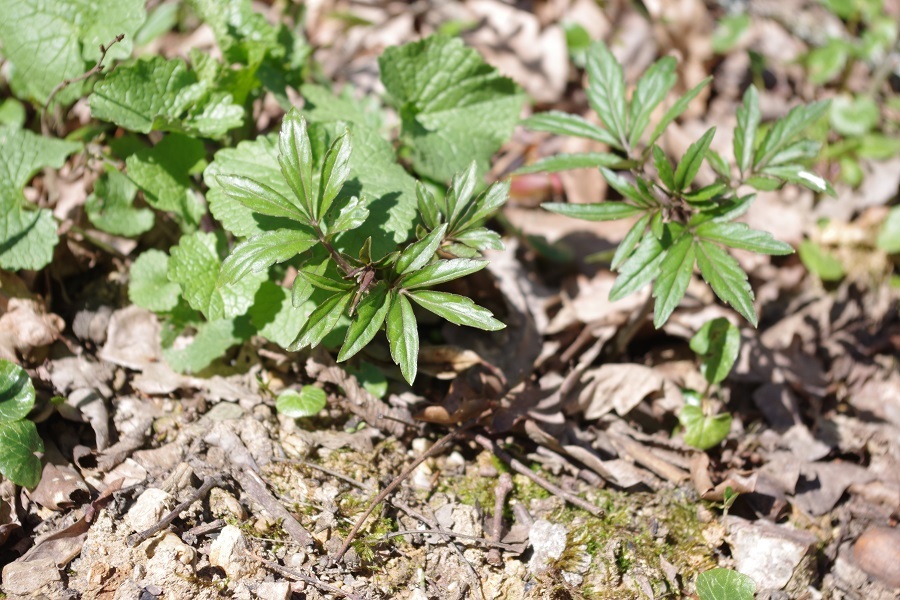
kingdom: Plantae
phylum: Tracheophyta
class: Magnoliopsida
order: Brassicales
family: Brassicaceae
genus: Cardamine
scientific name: Cardamine bulbifera
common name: Coralroot bittercress
